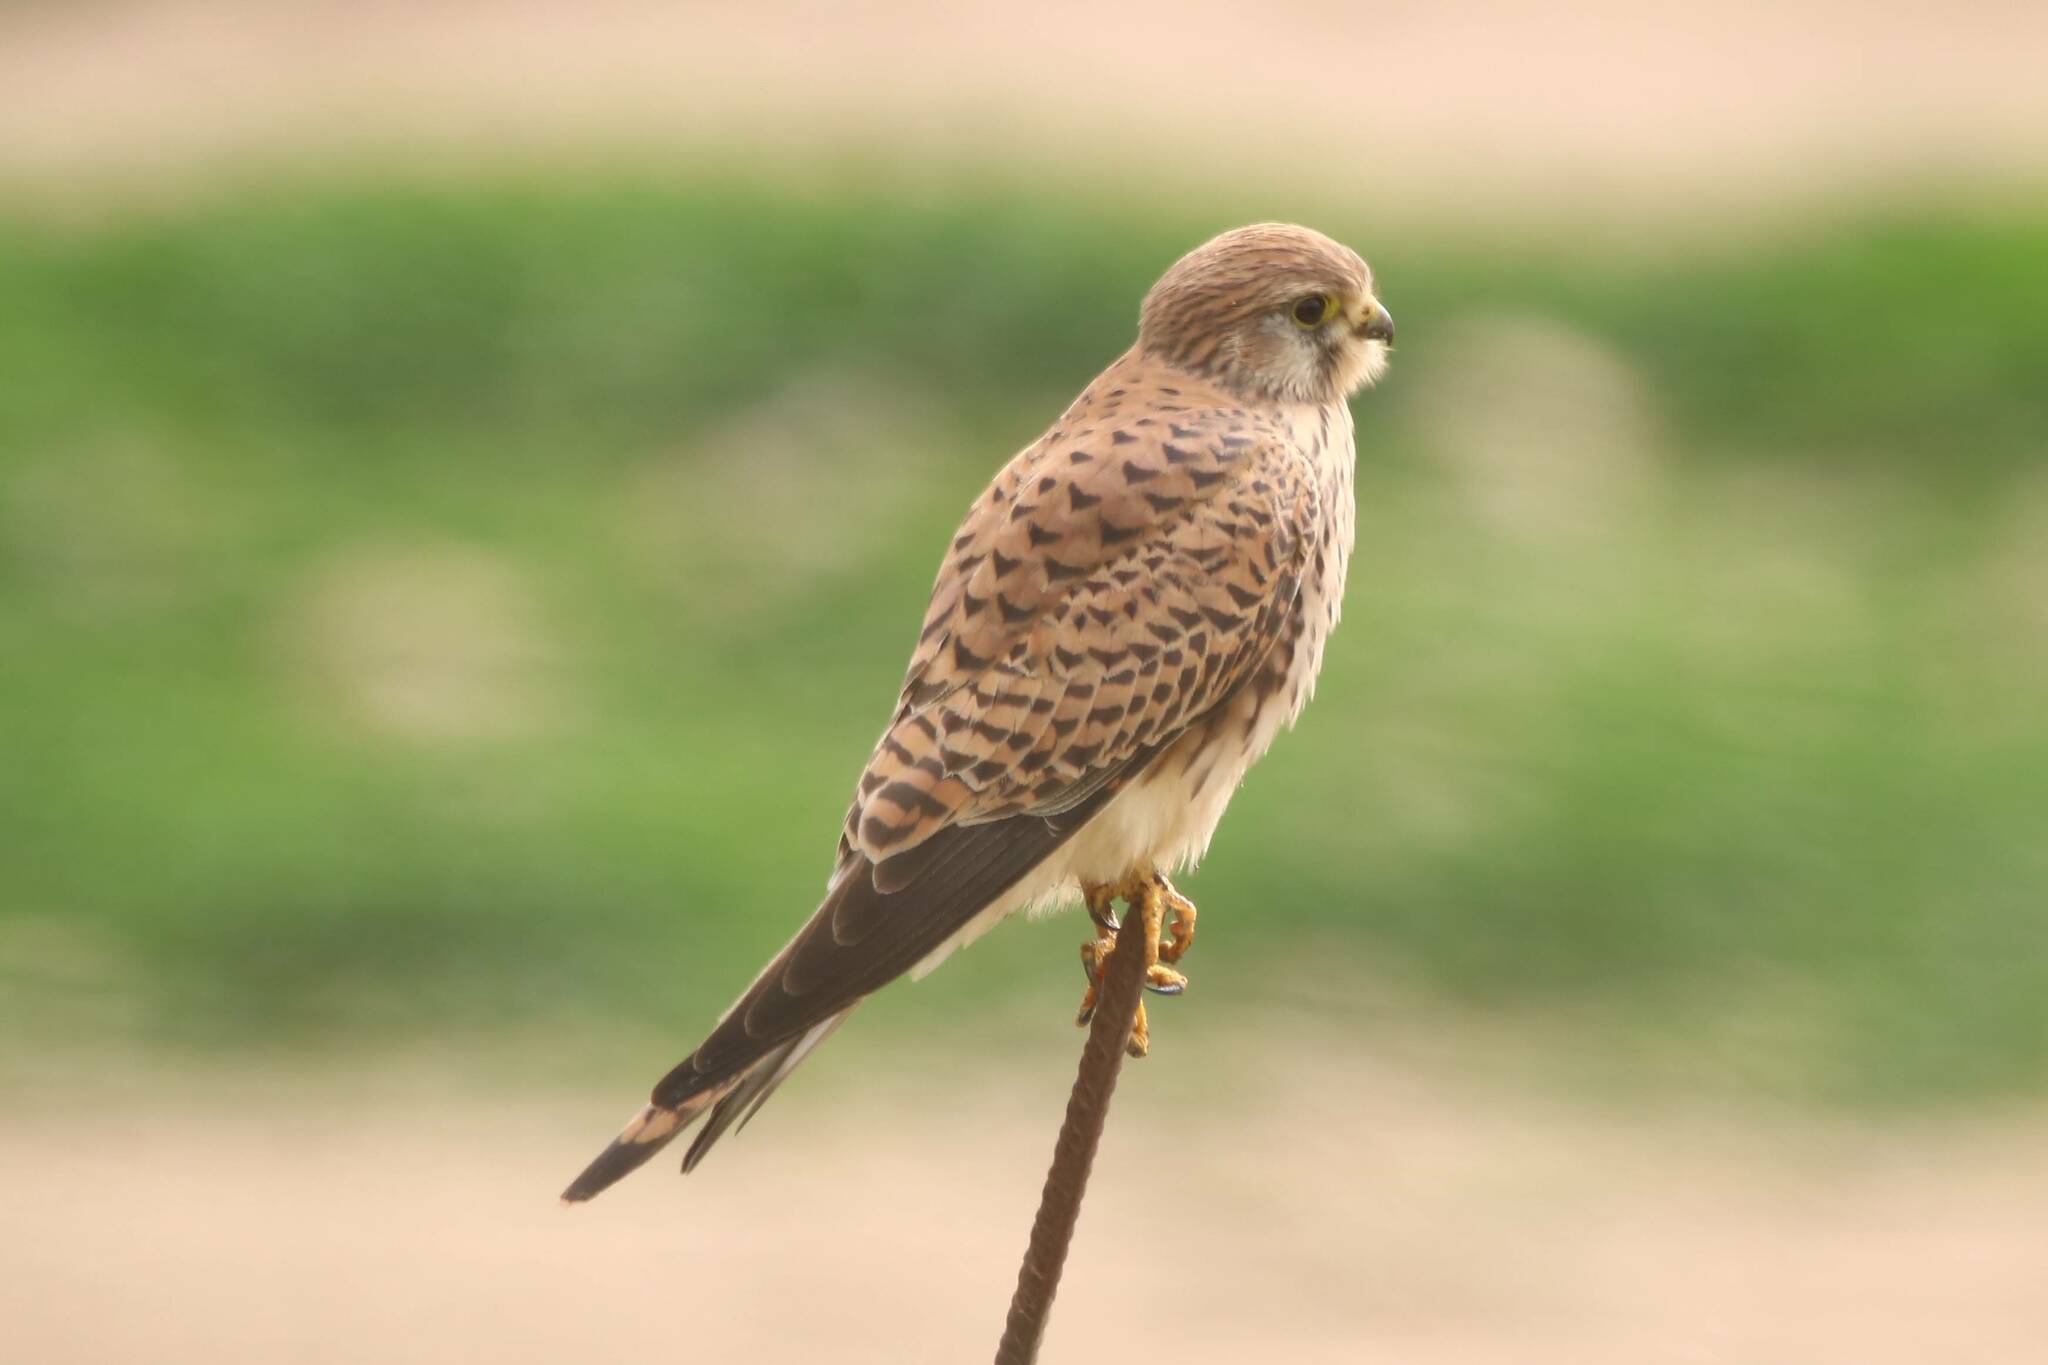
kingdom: Animalia
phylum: Chordata
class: Aves
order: Falconiformes
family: Falconidae
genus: Falco
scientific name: Falco tinnunculus
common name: Common kestrel
